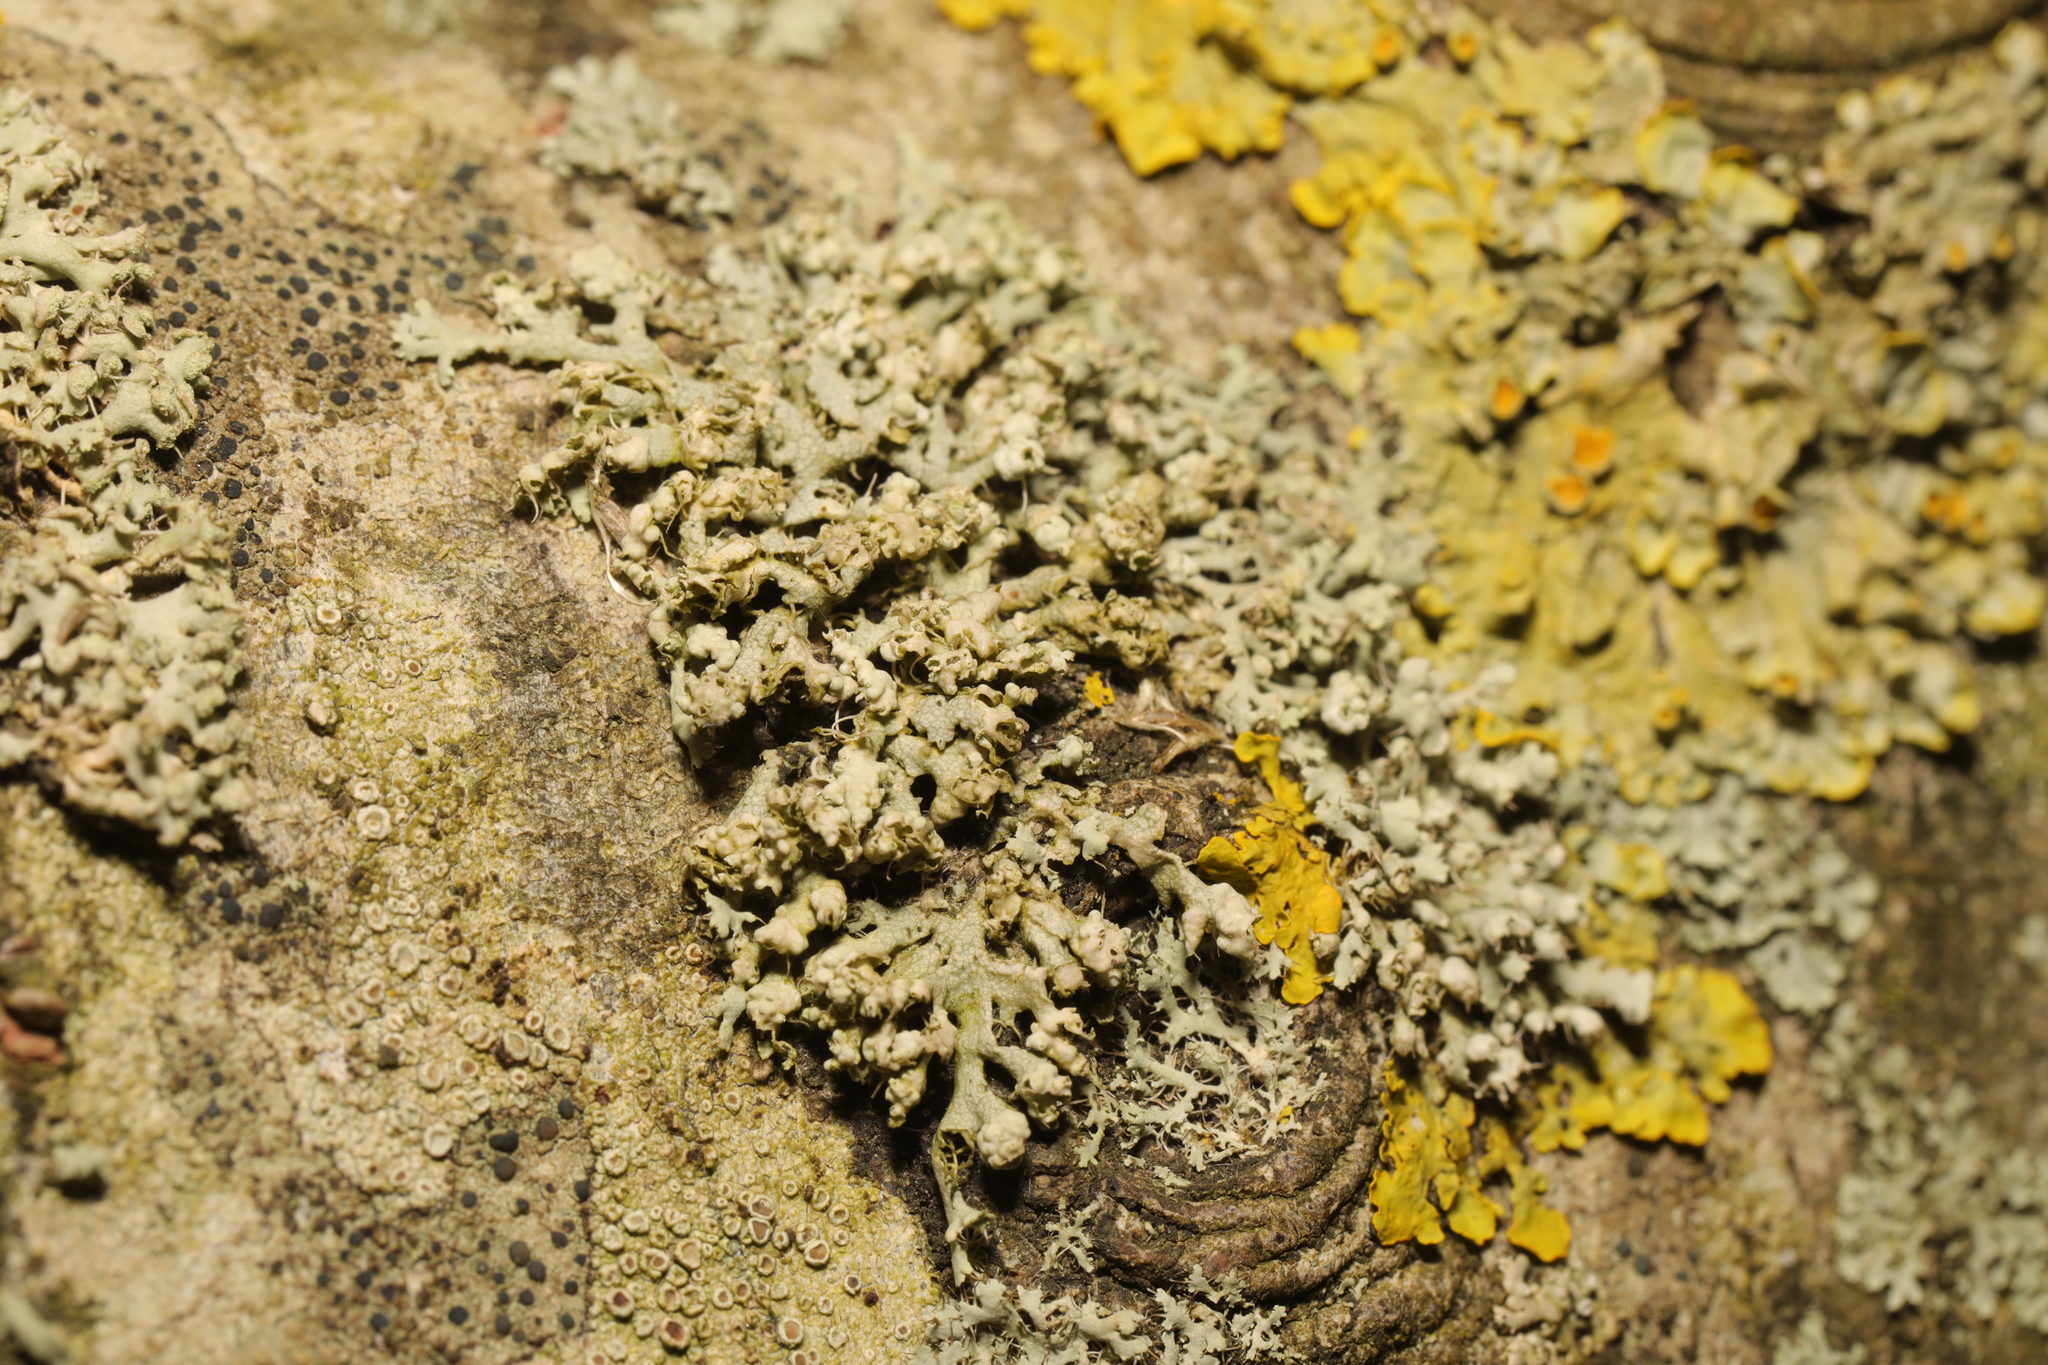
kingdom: Fungi
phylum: Ascomycota
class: Lecanoromycetes
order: Caliciales
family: Physciaceae
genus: Physcia
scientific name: Physcia adscendens
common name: Hooded rosette lichen
